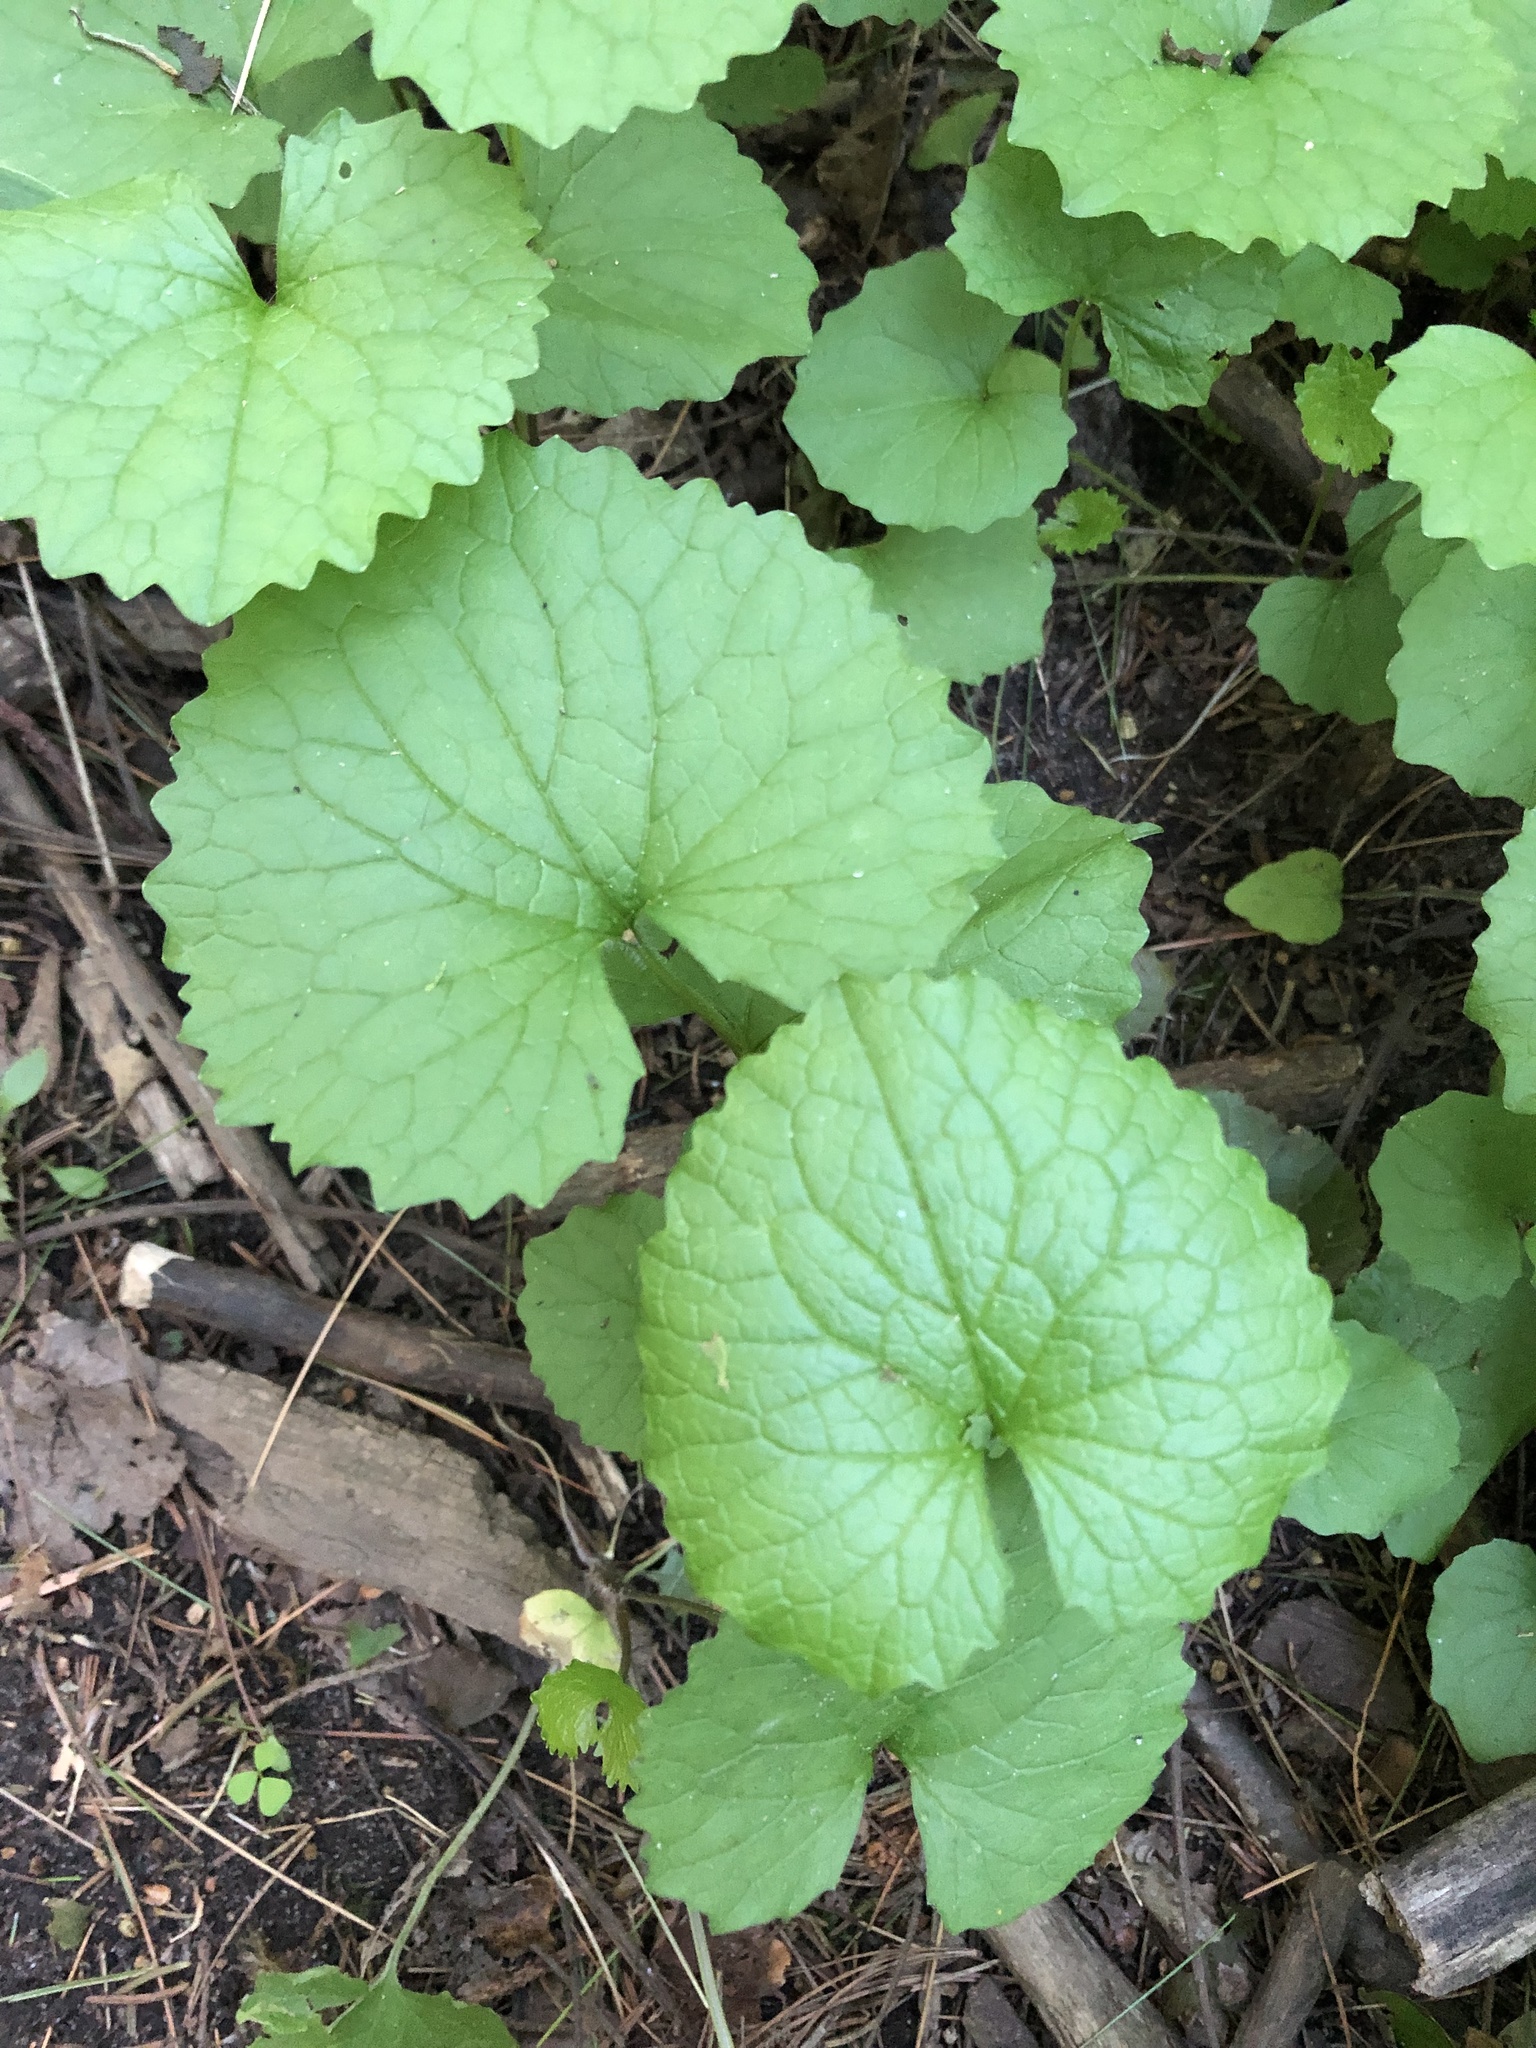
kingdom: Plantae
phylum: Tracheophyta
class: Magnoliopsida
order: Brassicales
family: Brassicaceae
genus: Alliaria
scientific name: Alliaria petiolata
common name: Garlic mustard
